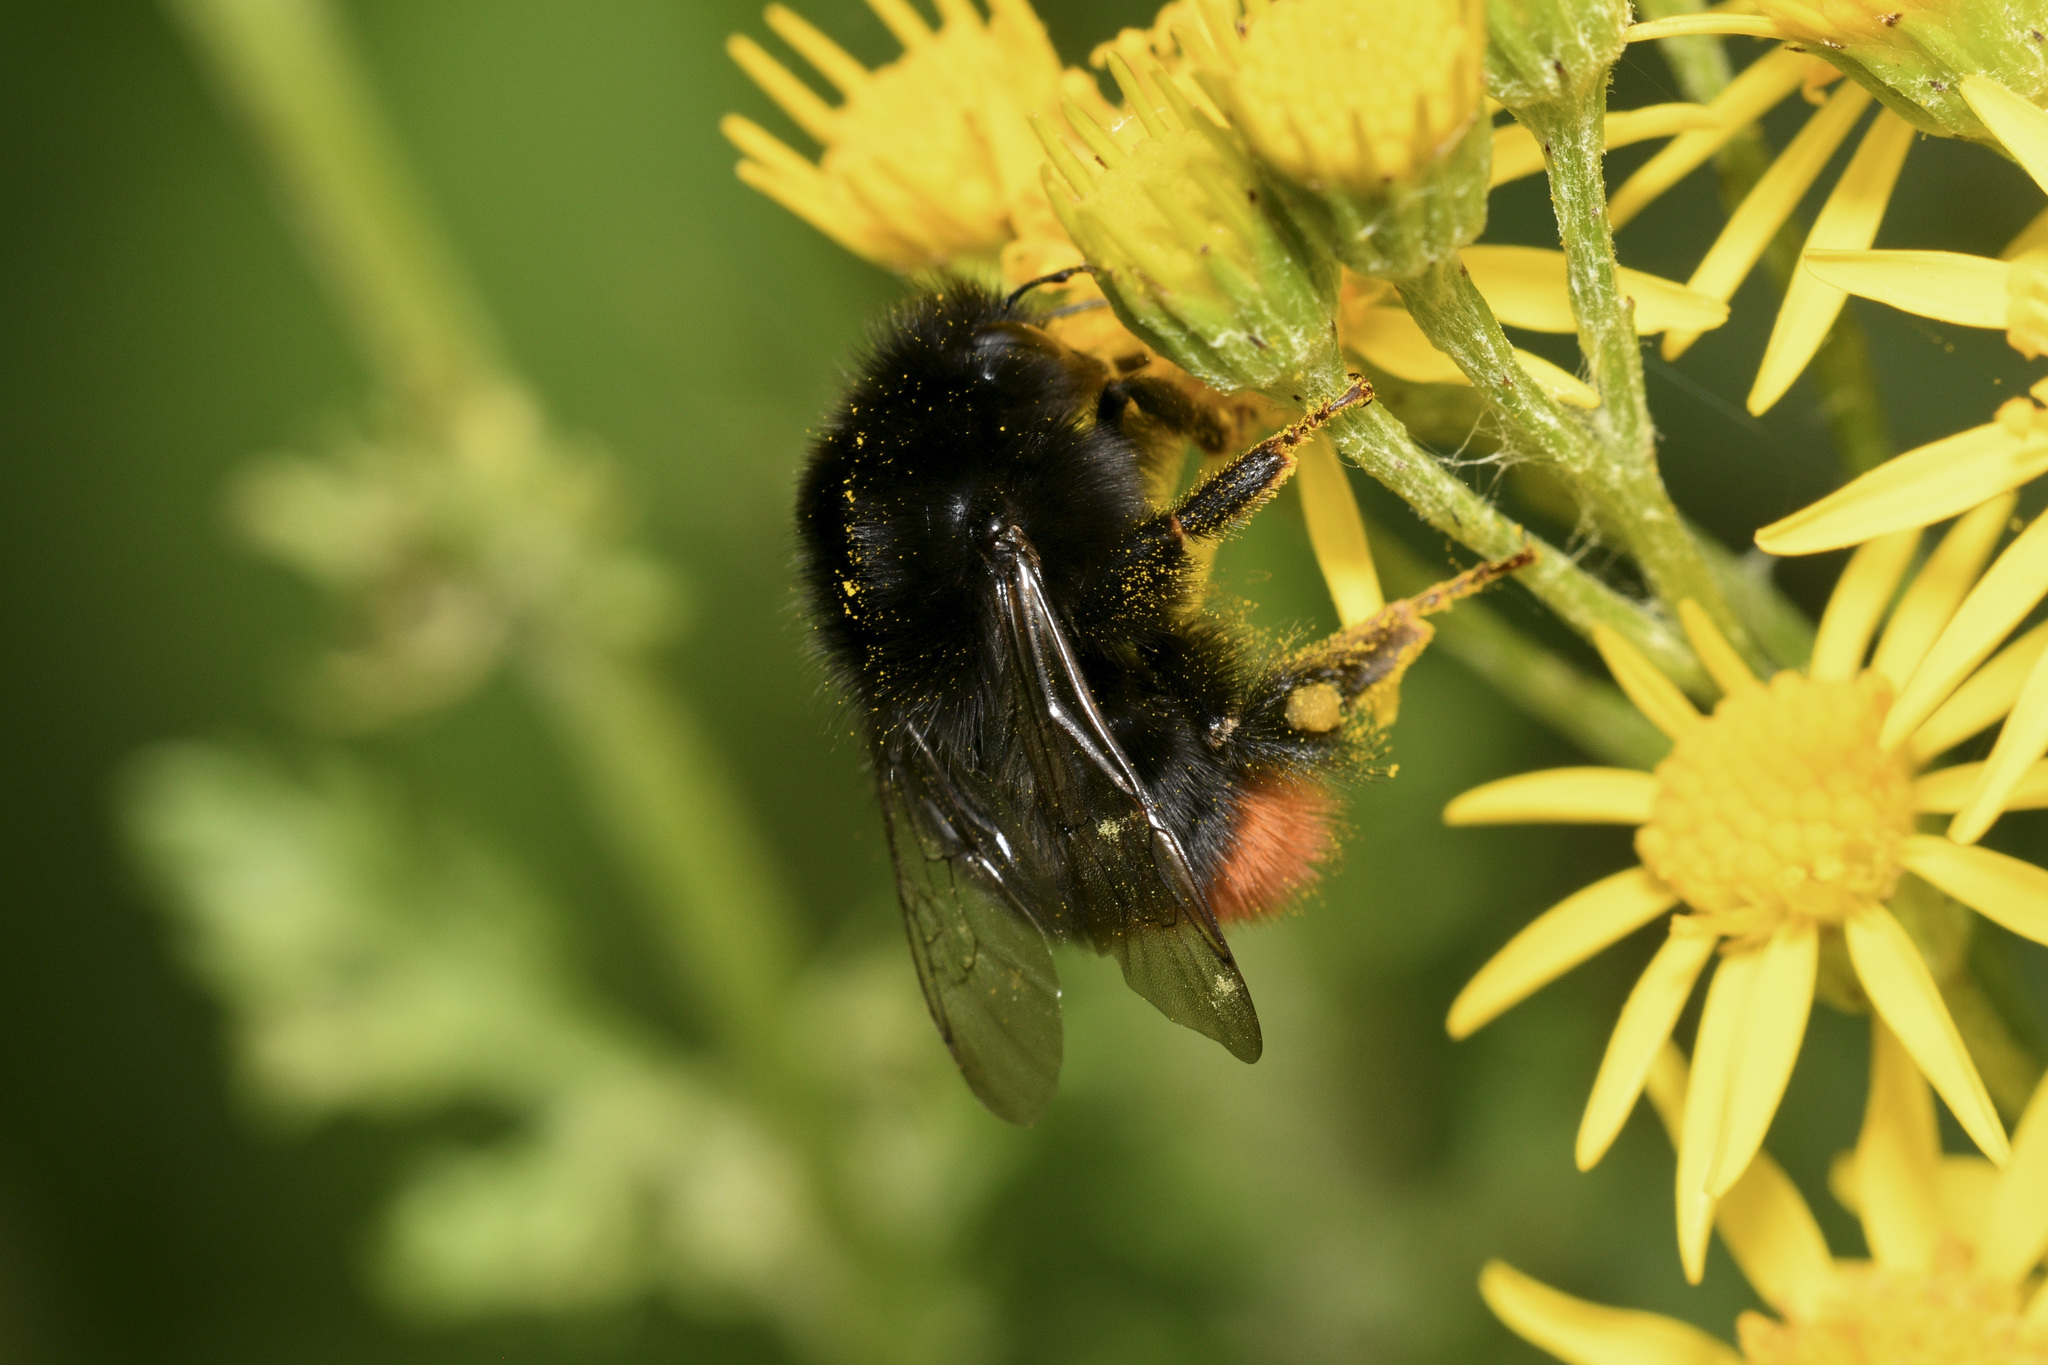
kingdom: Animalia
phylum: Arthropoda
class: Insecta
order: Hymenoptera
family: Apidae
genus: Bombus
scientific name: Bombus lapidarius
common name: Large red-tailed humble-bee
